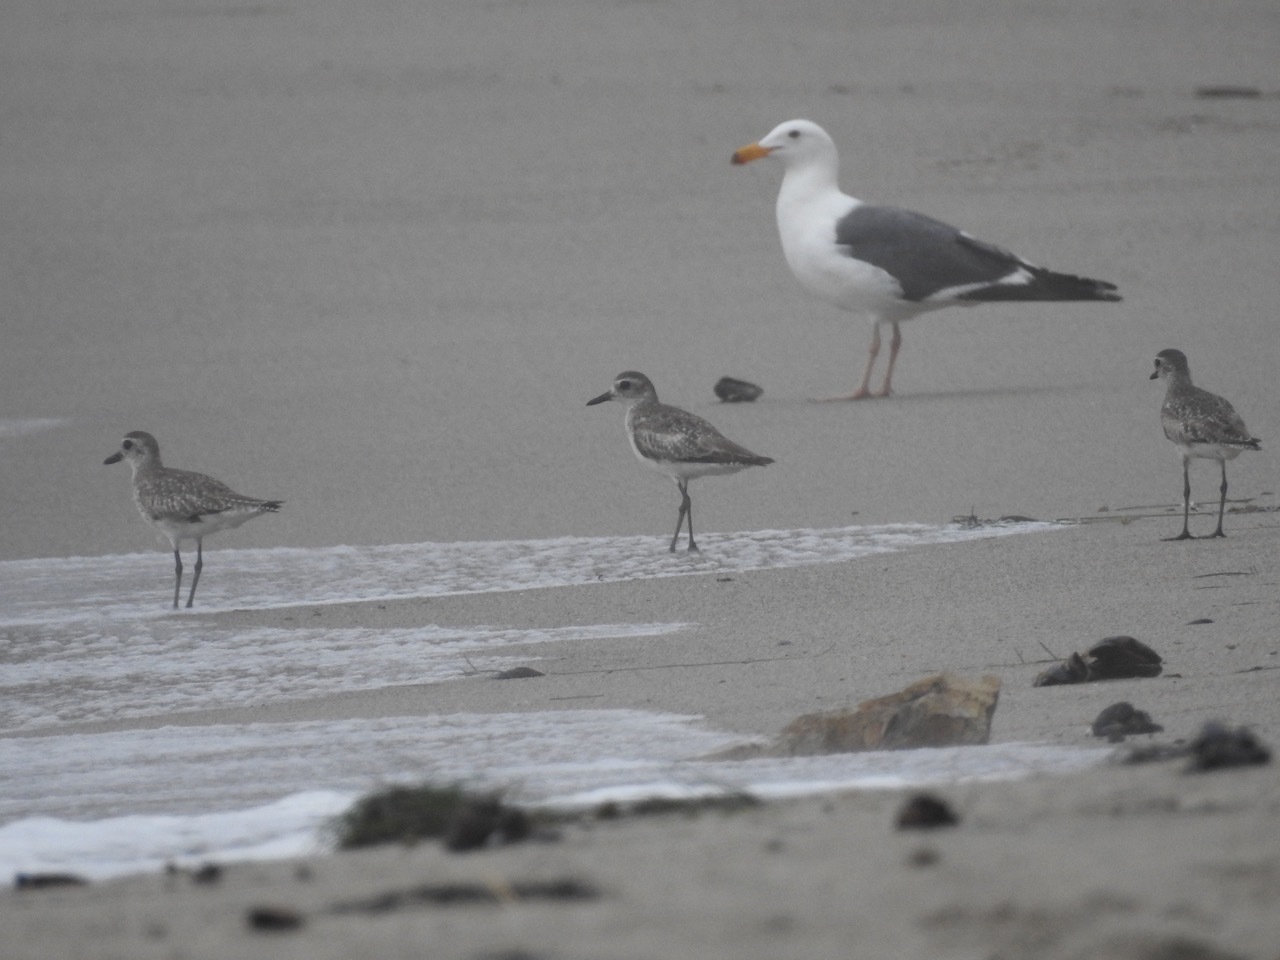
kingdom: Animalia
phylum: Chordata
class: Aves
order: Charadriiformes
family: Charadriidae
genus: Pluvialis
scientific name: Pluvialis squatarola
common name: Grey plover
